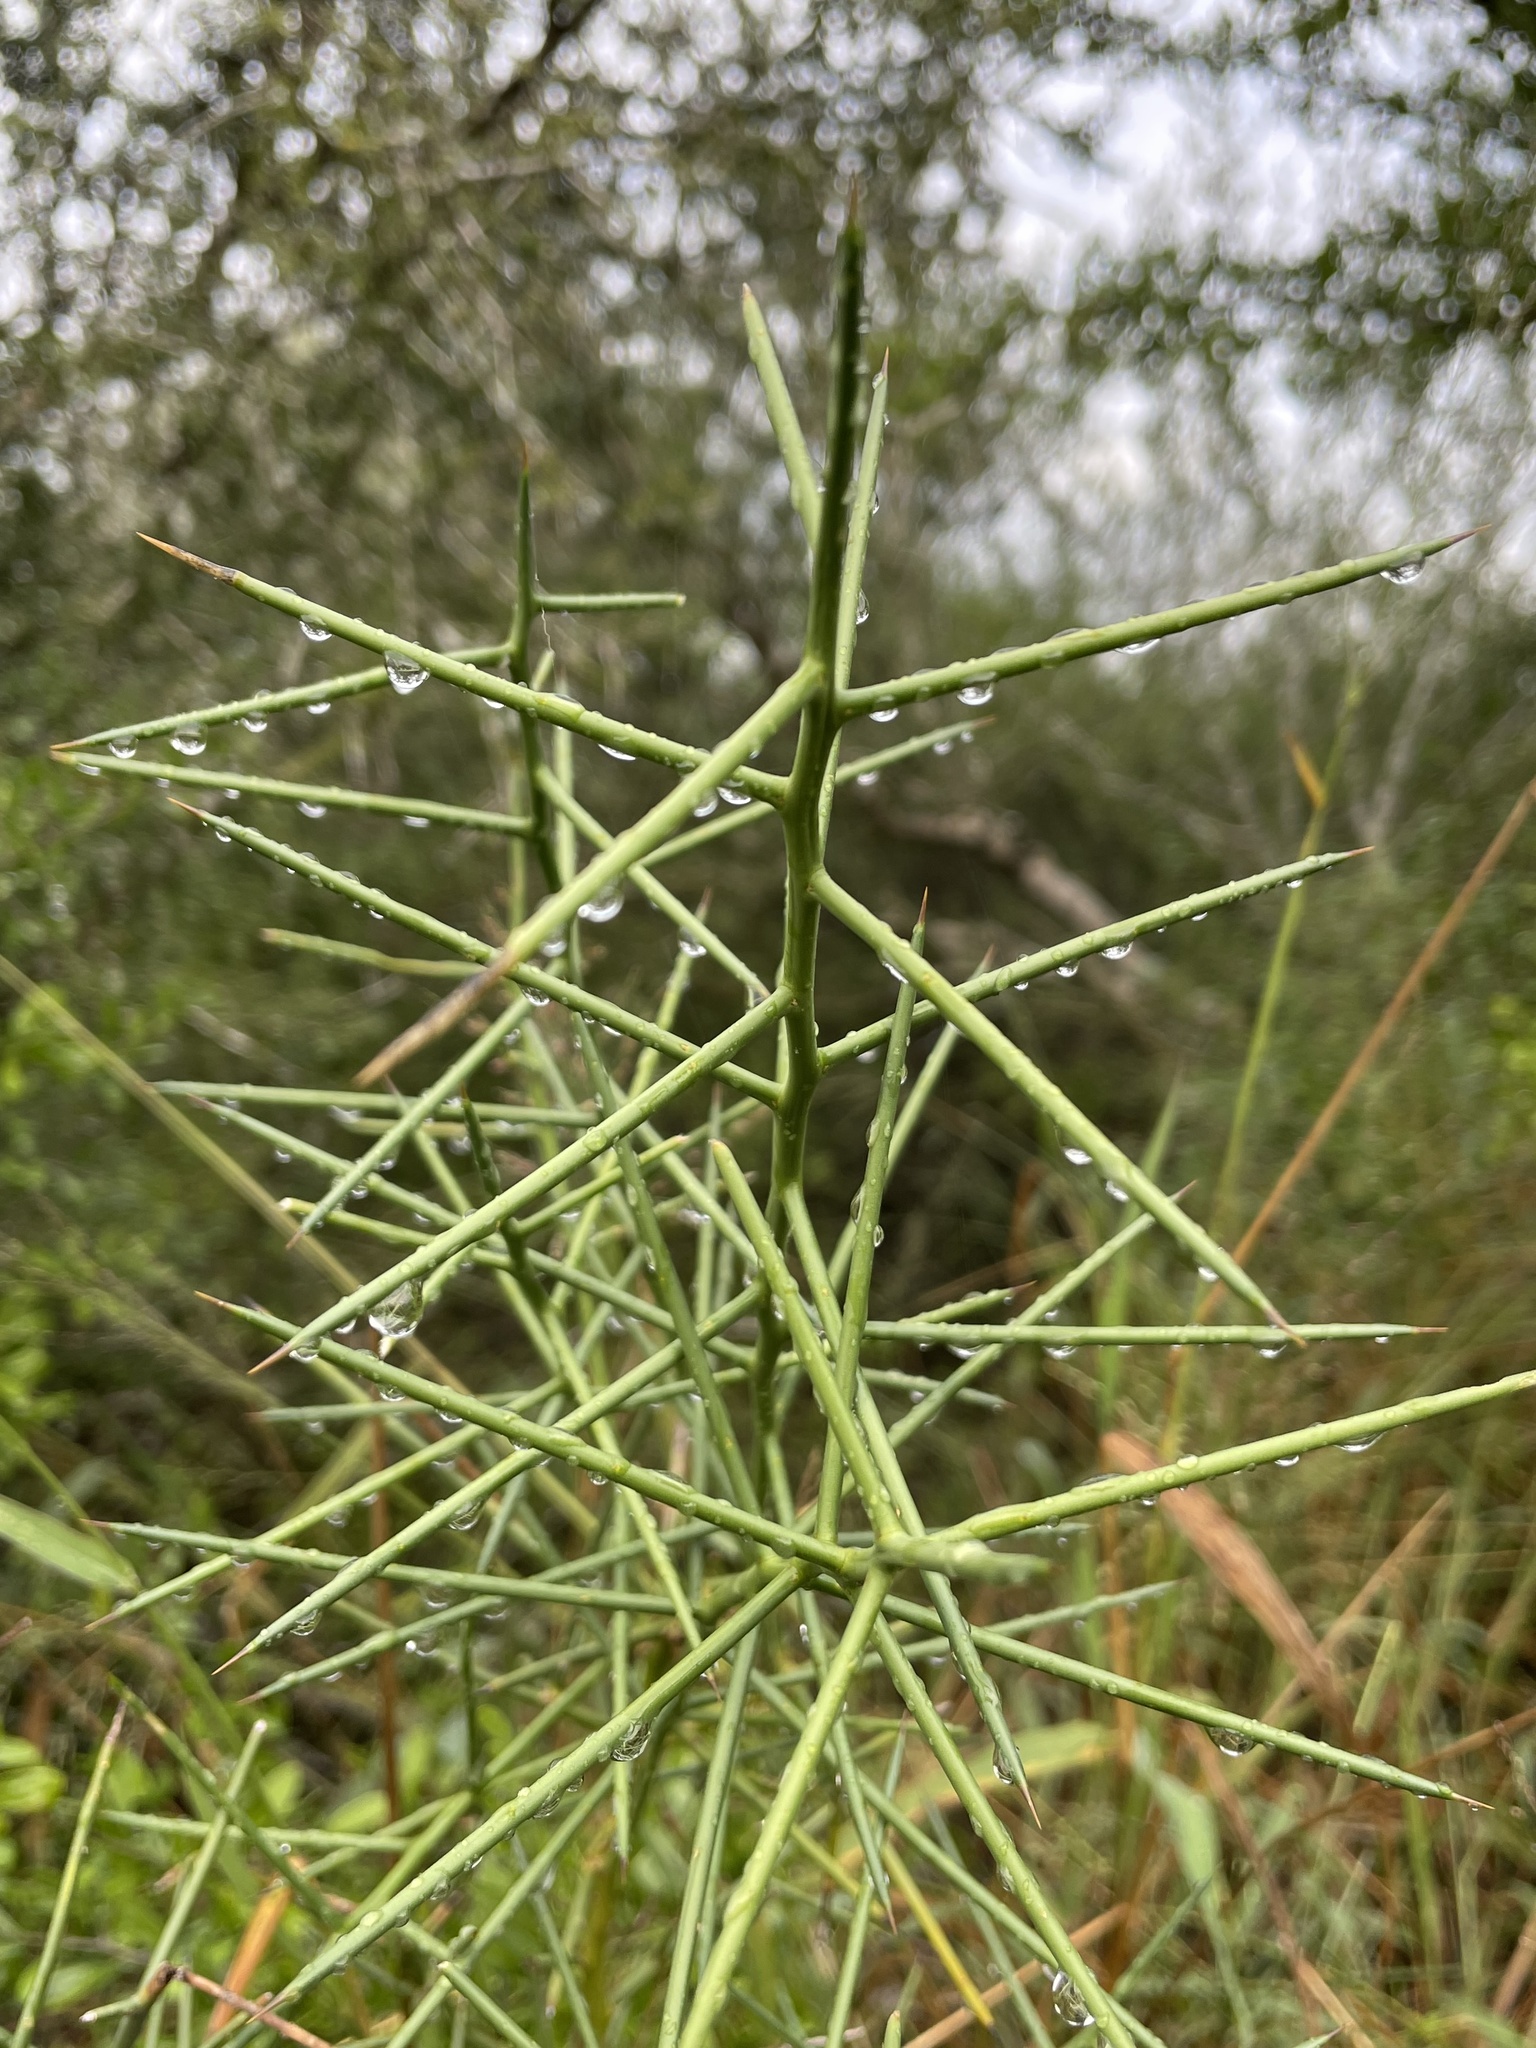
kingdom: Plantae
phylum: Tracheophyta
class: Magnoliopsida
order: Brassicales
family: Koeberliniaceae
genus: Koeberlinia
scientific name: Koeberlinia spinosa
